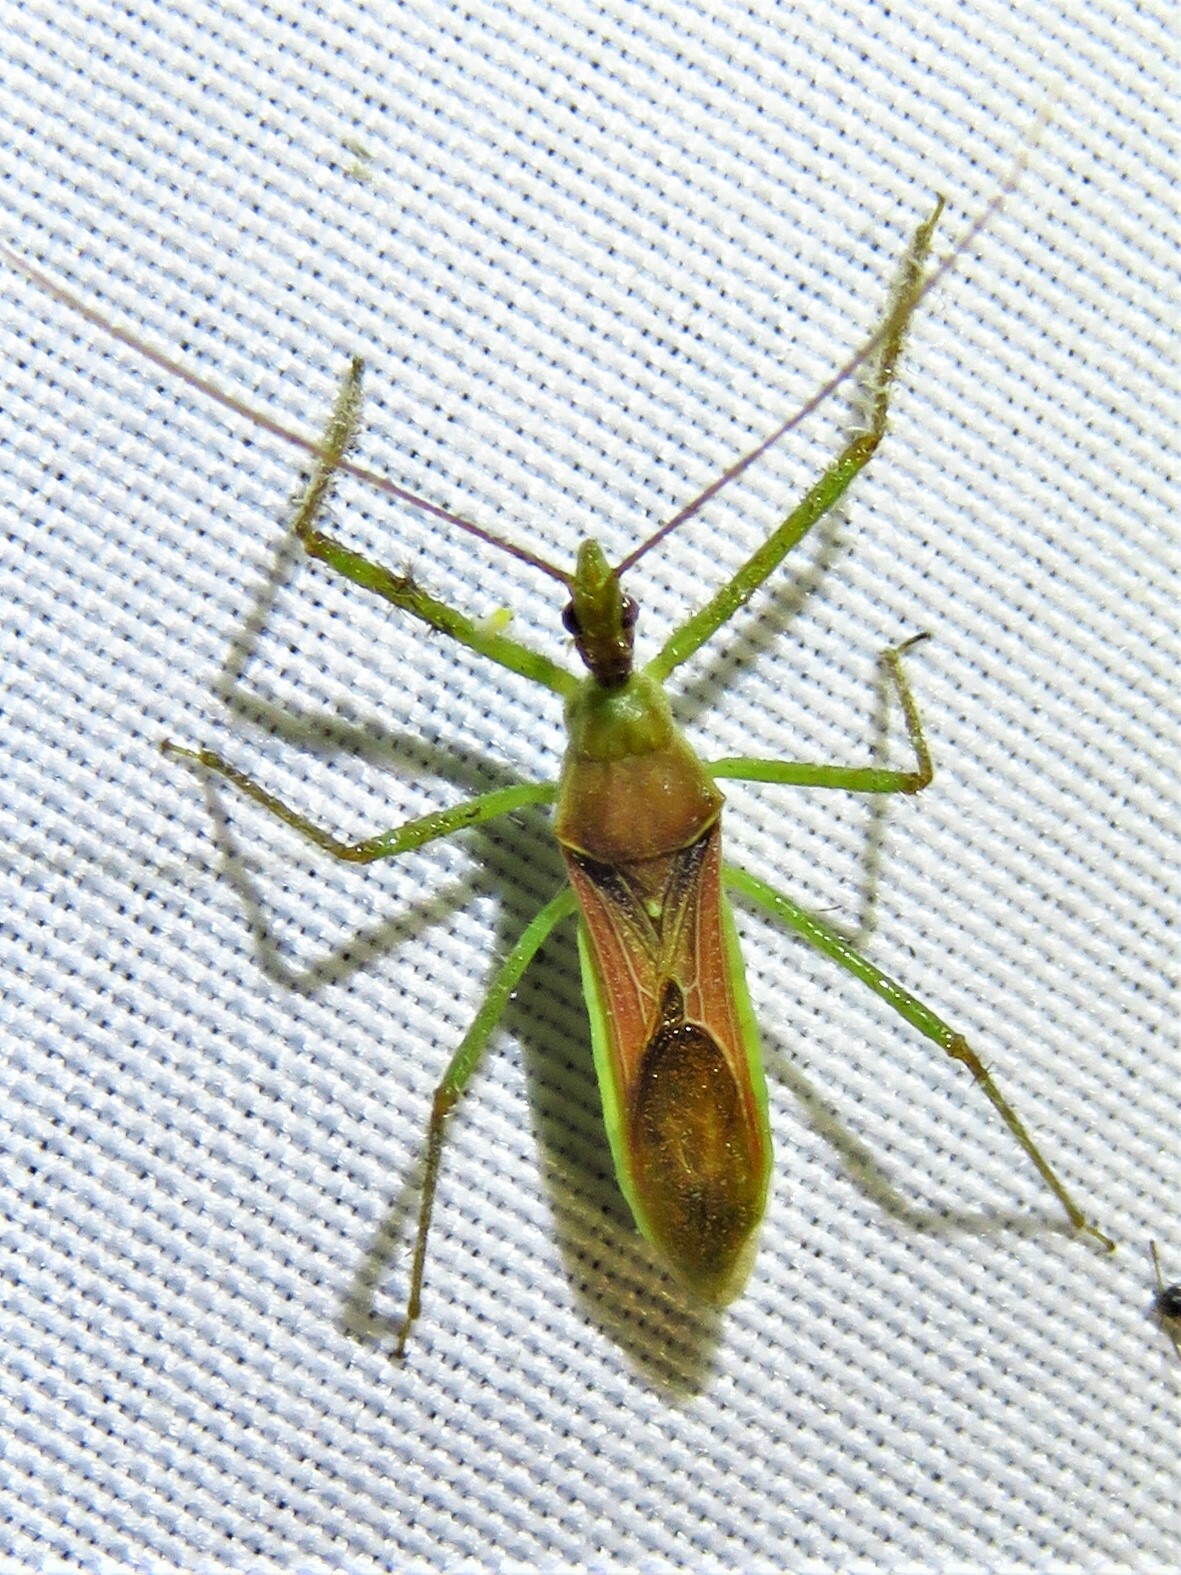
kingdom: Animalia
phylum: Arthropoda
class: Insecta
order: Hemiptera
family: Reduviidae
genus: Zelus
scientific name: Zelus renardii
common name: Assassin bug
